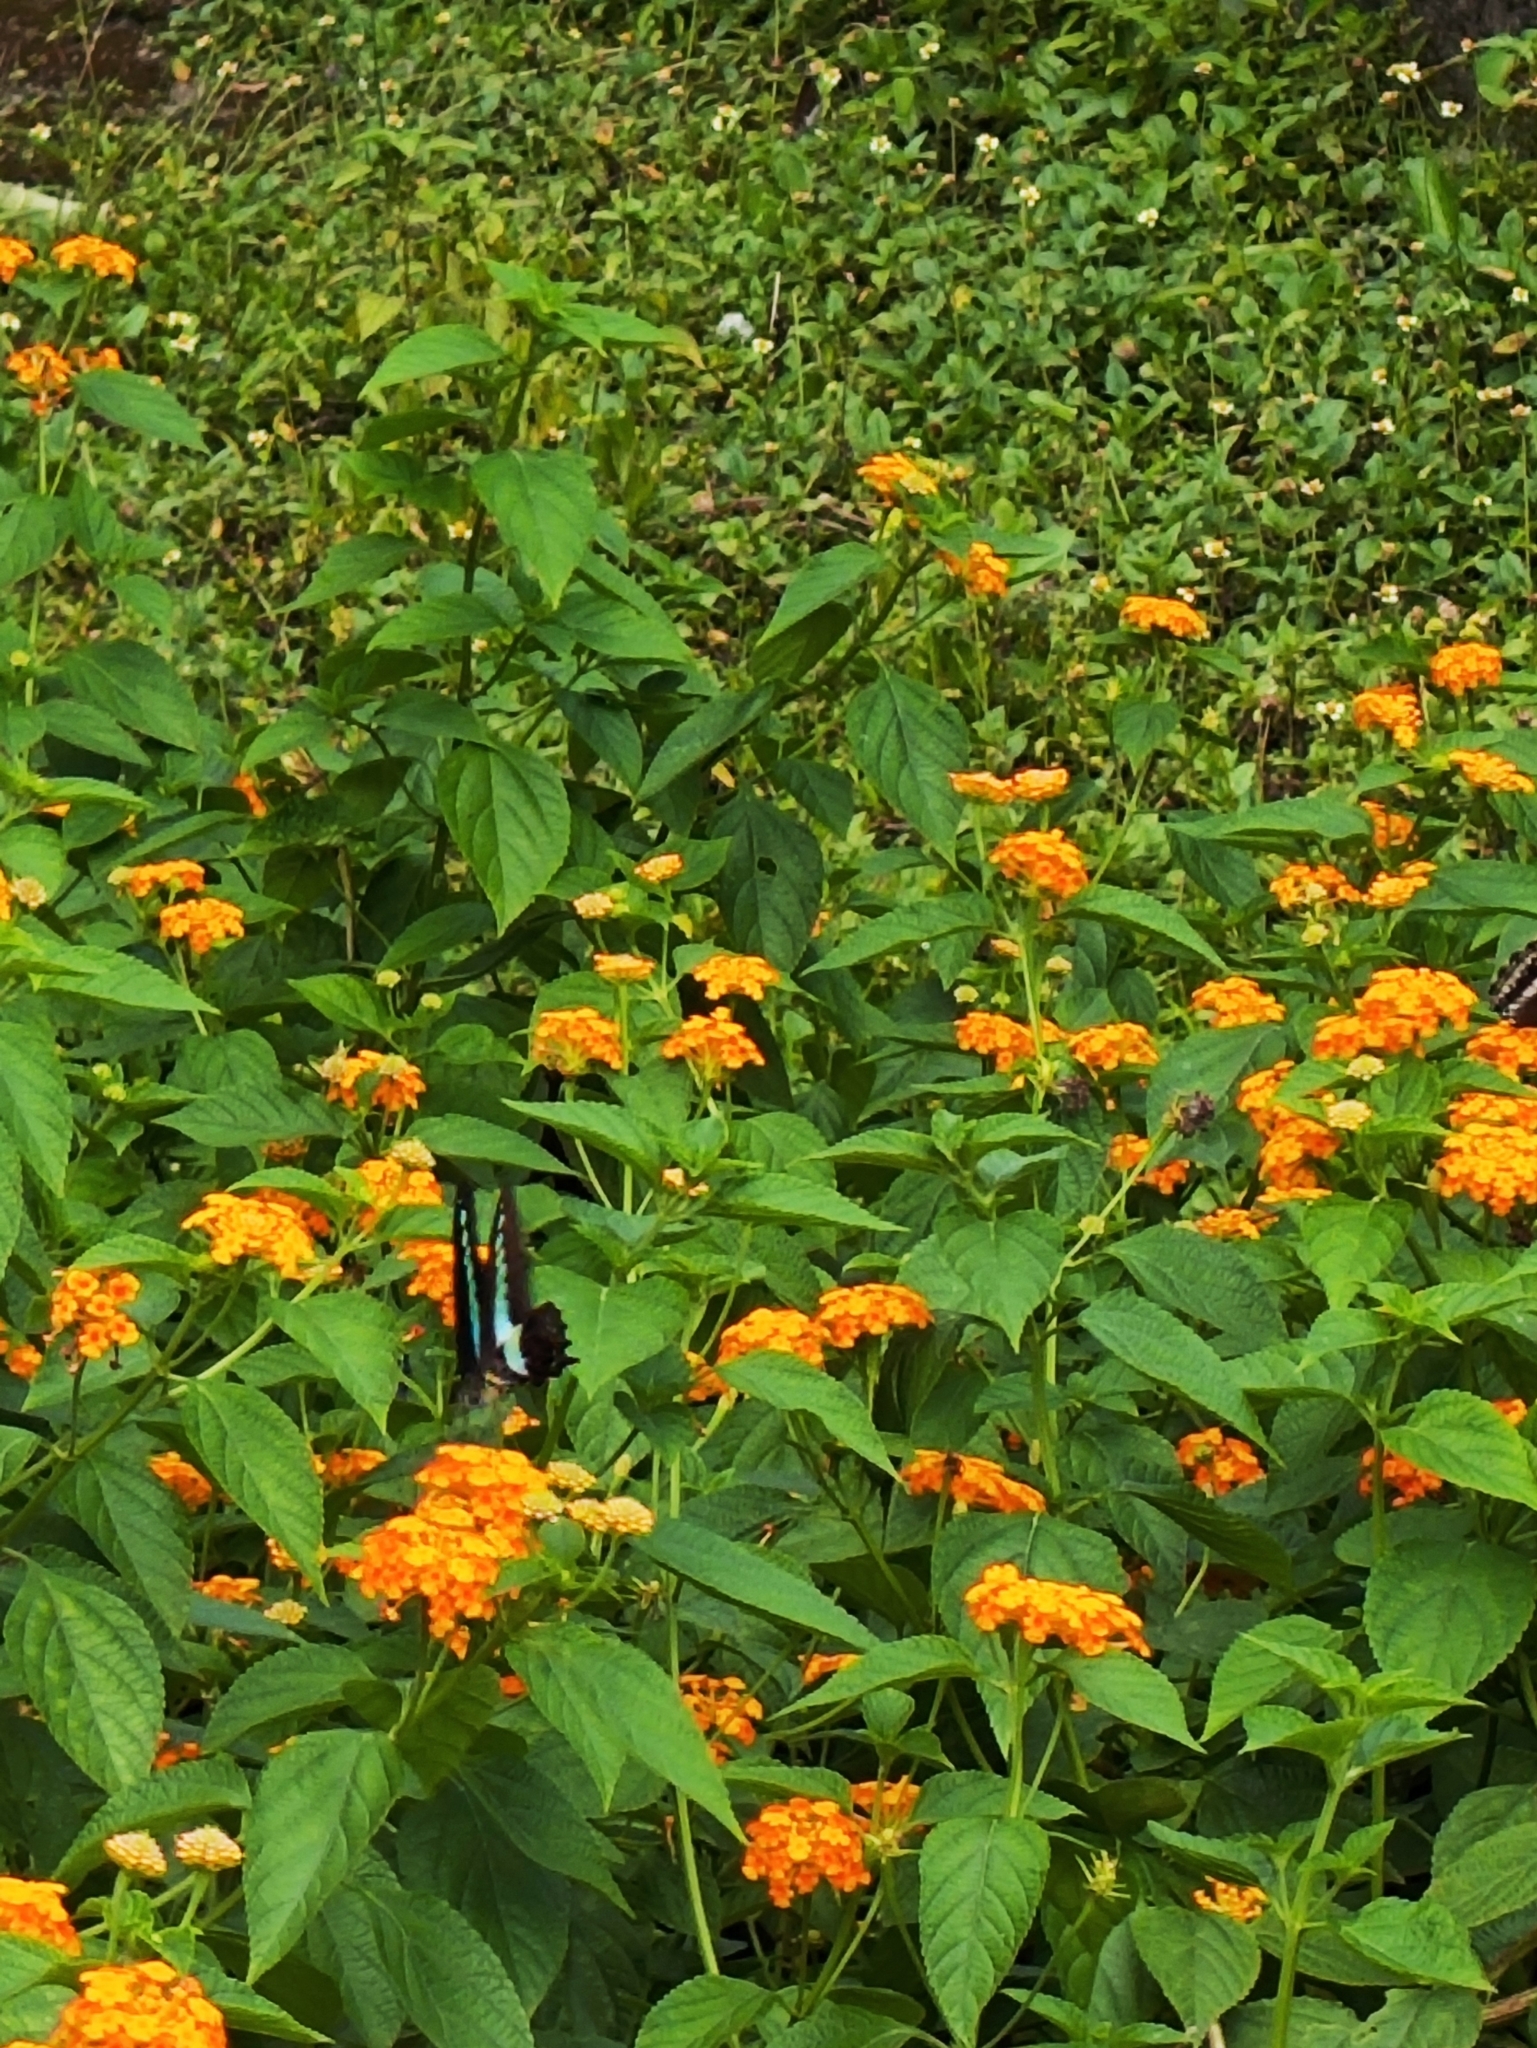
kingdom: Animalia
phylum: Arthropoda
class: Insecta
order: Lepidoptera
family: Papilionidae
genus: Graphium
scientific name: Graphium
